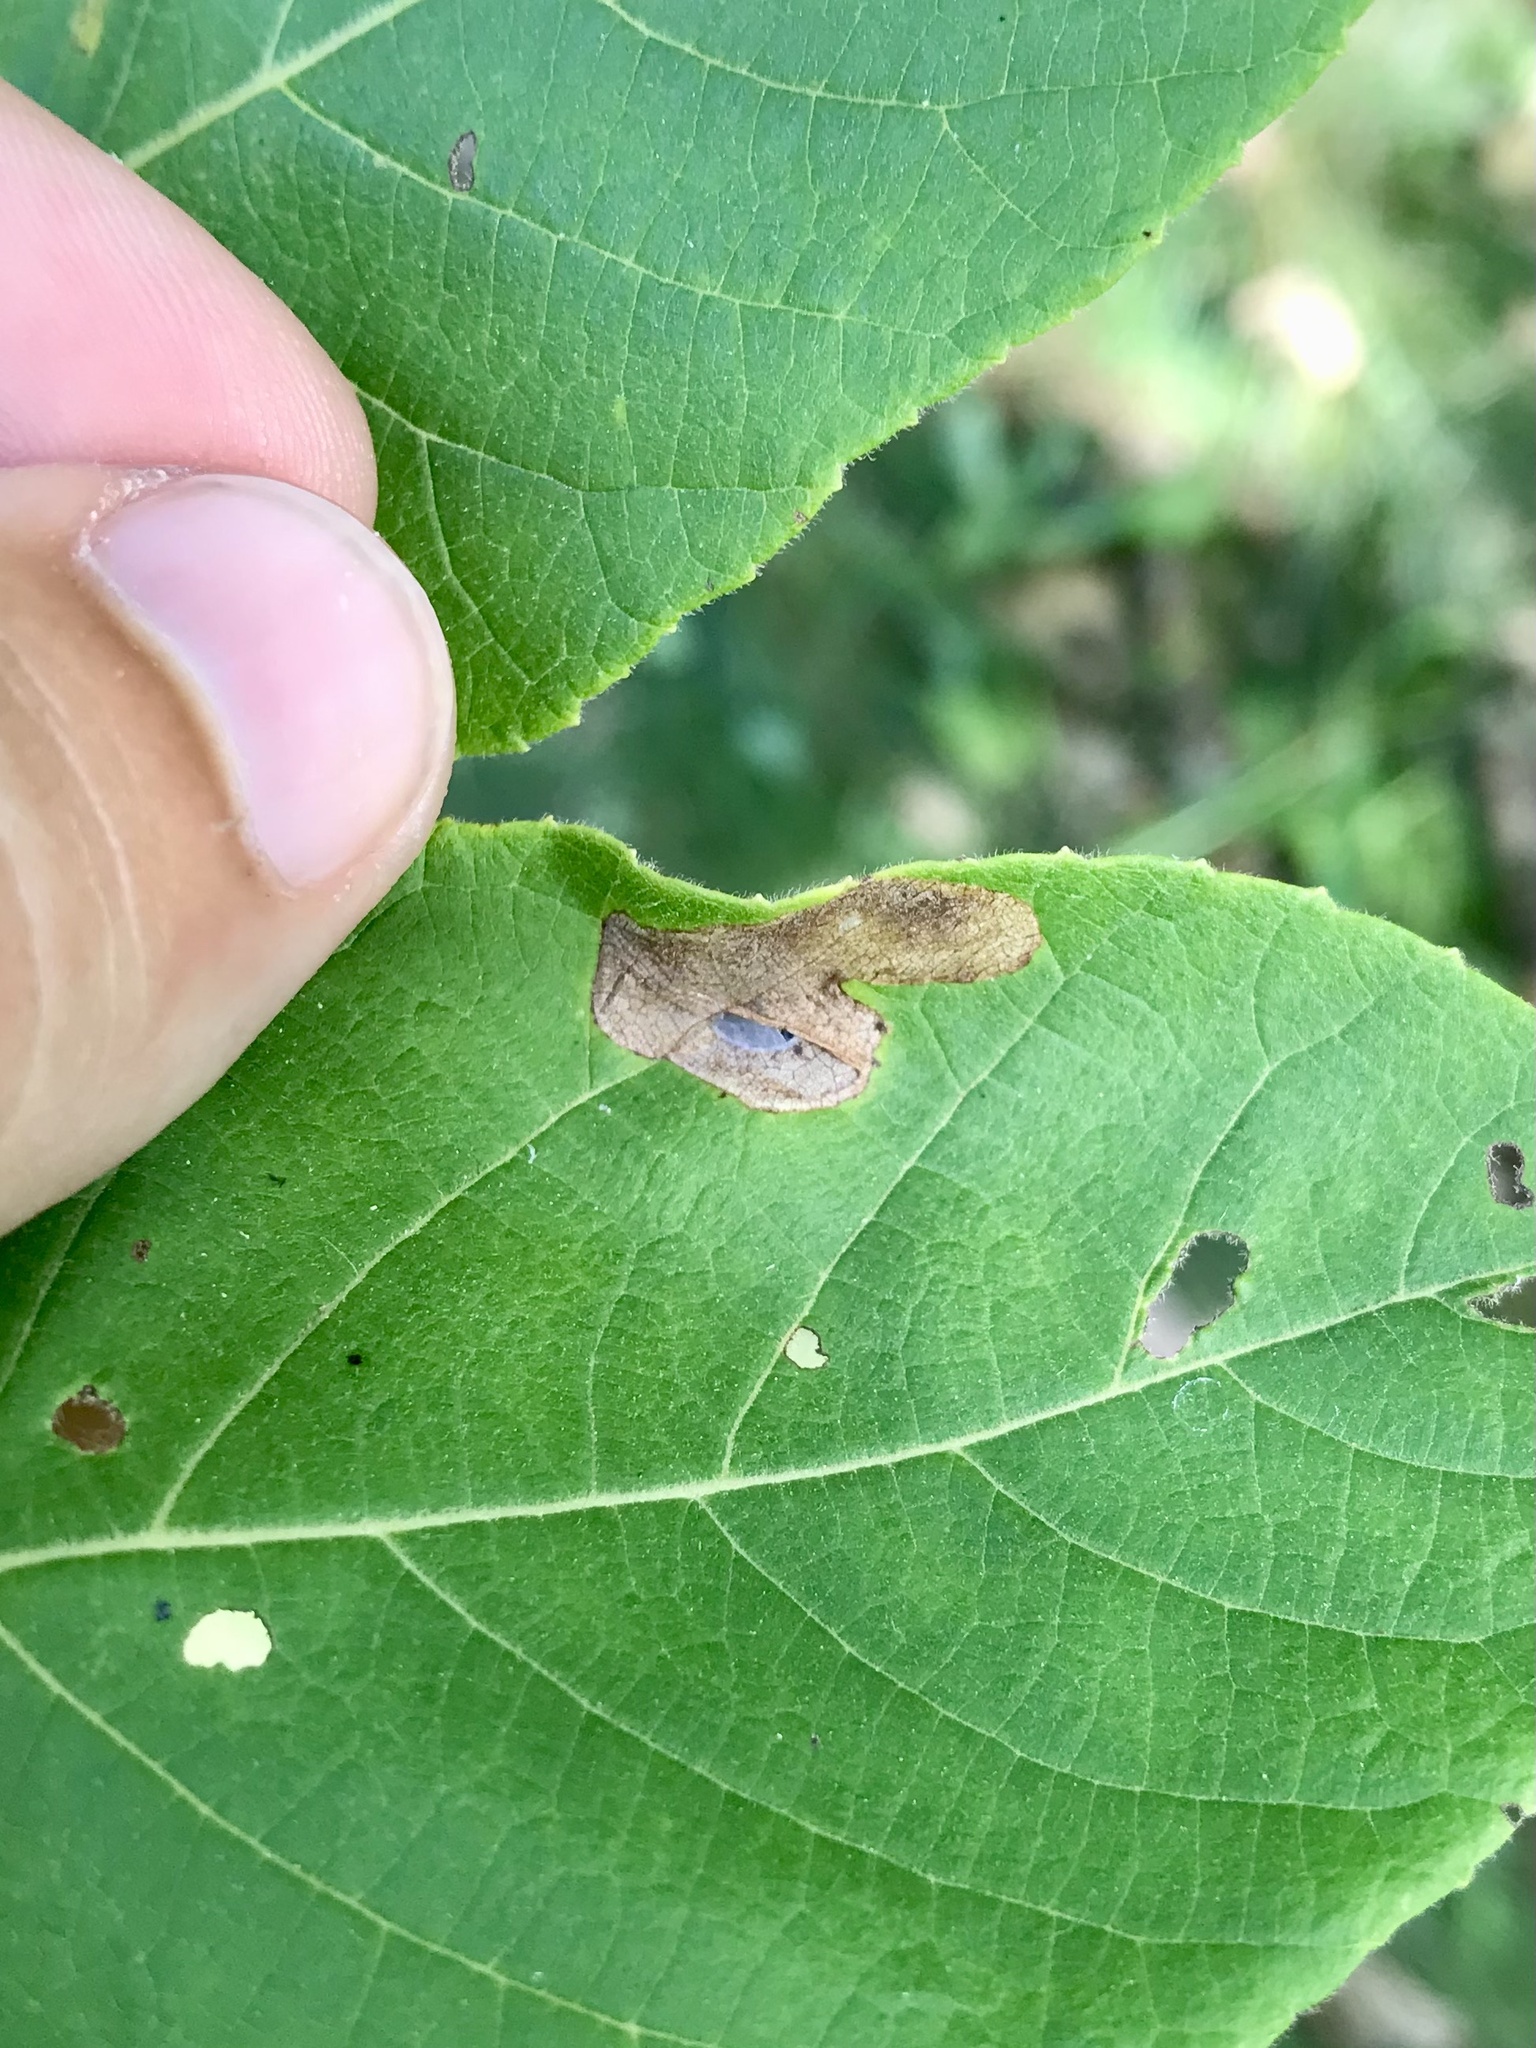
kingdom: Animalia
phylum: Arthropoda
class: Insecta
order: Lepidoptera
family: Gracillariidae
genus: Cameraria
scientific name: Cameraria caryaefoliella
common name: Pecan leafminer moth
